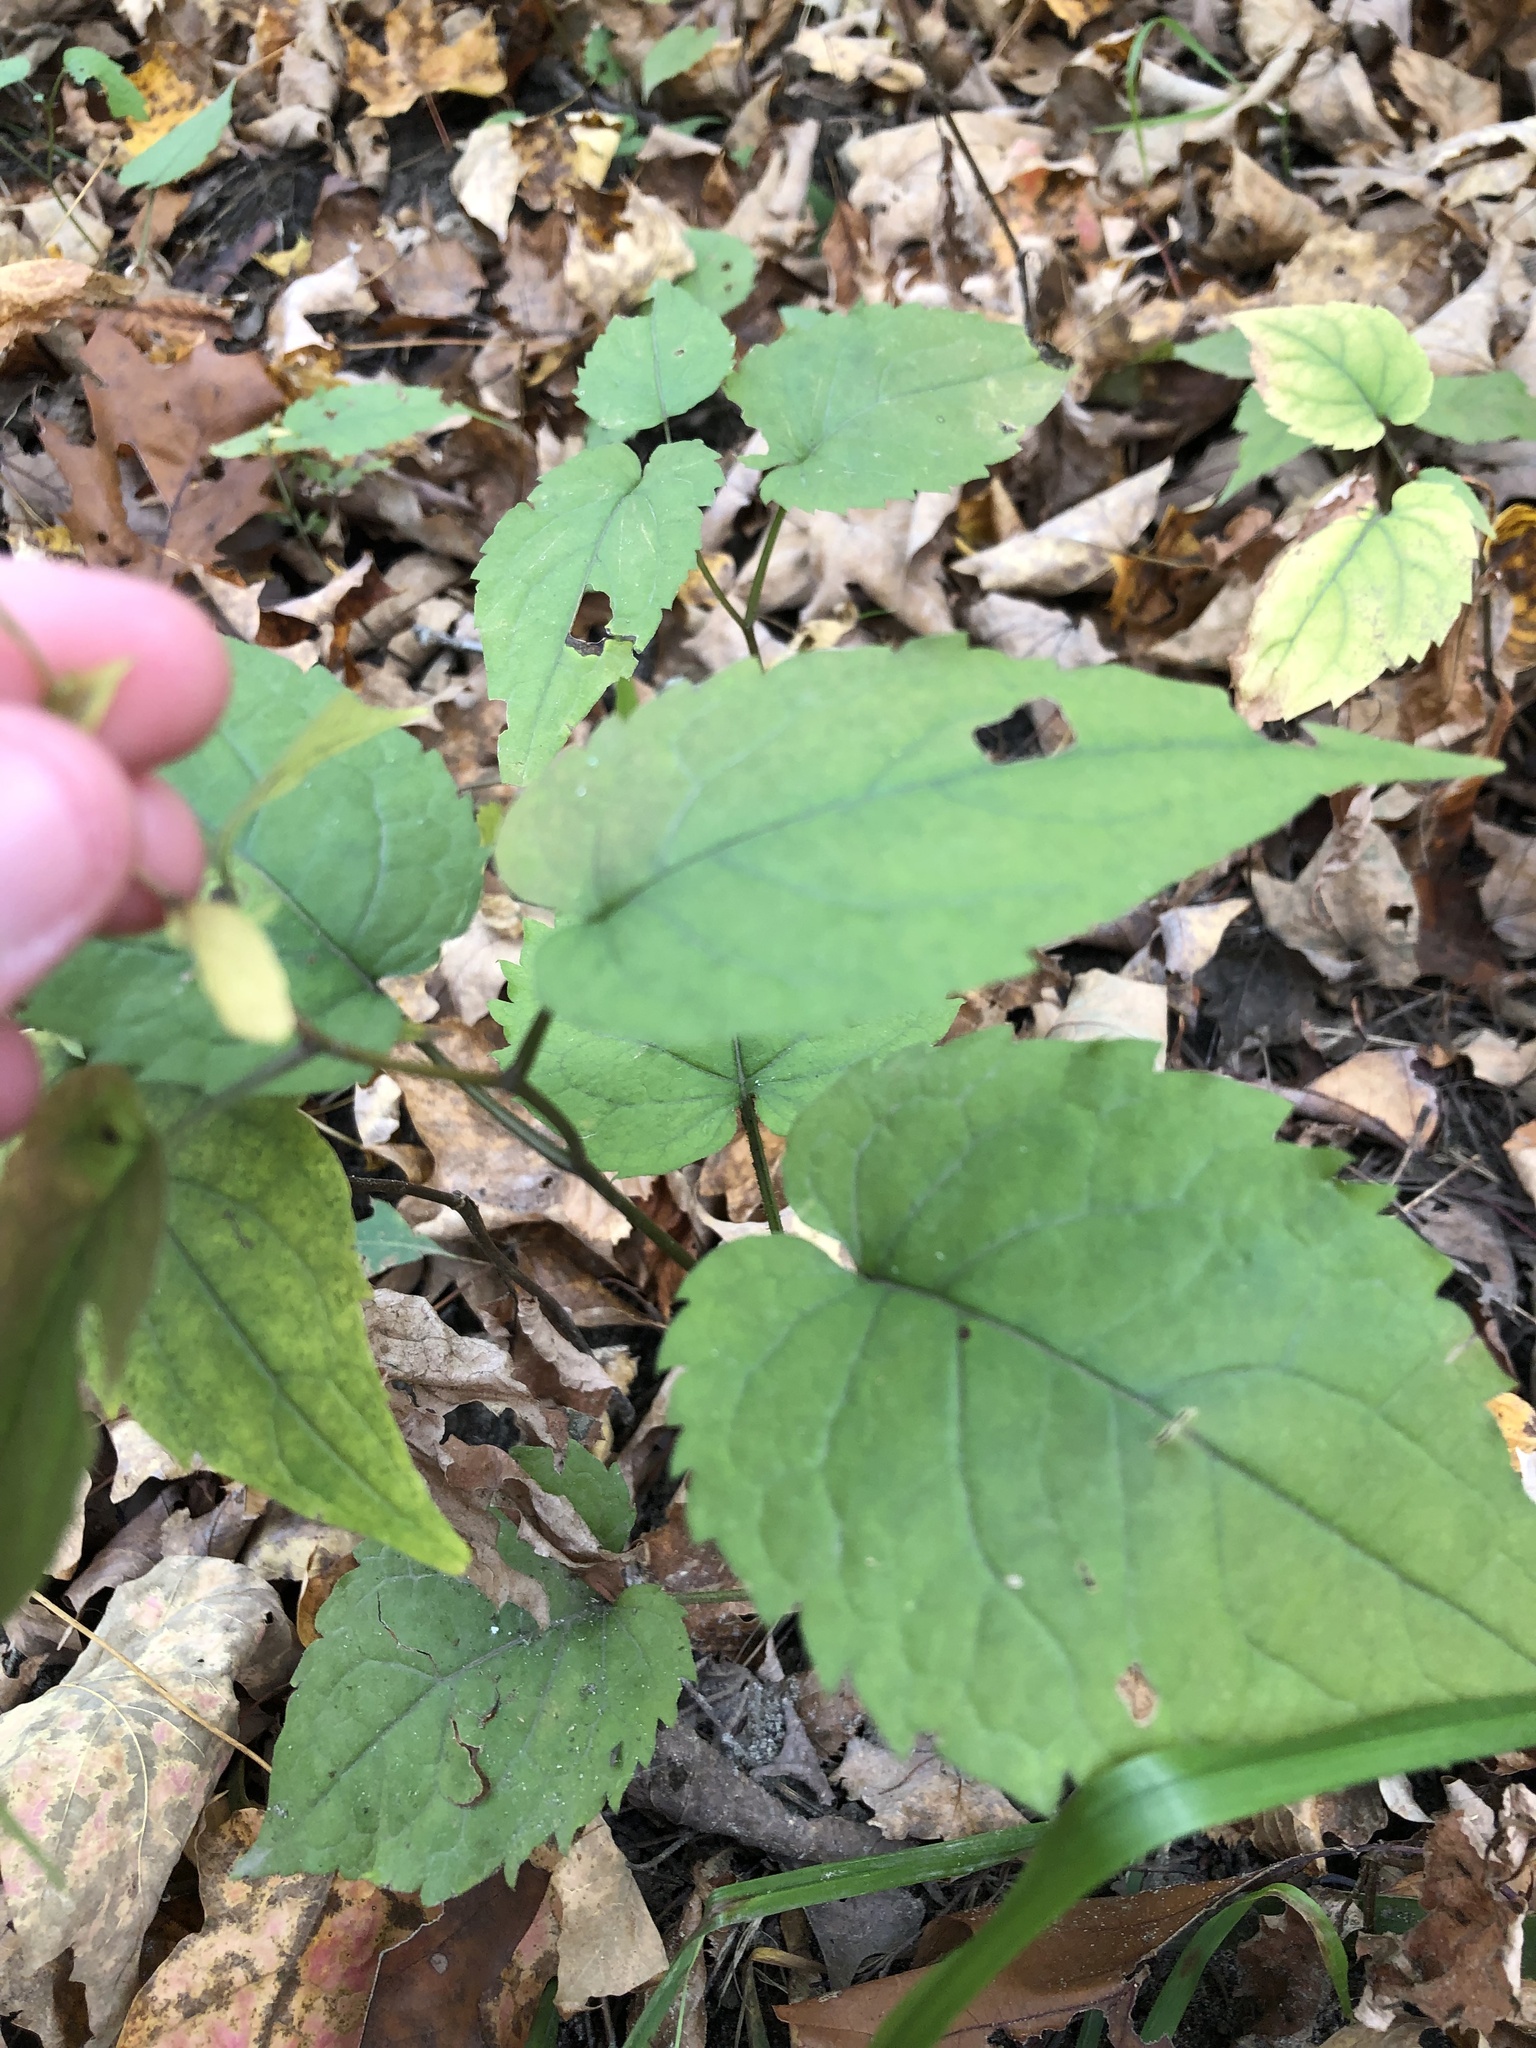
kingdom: Plantae
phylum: Tracheophyta
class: Magnoliopsida
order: Asterales
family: Asteraceae
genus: Eurybia
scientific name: Eurybia divaricata
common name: White wood aster
